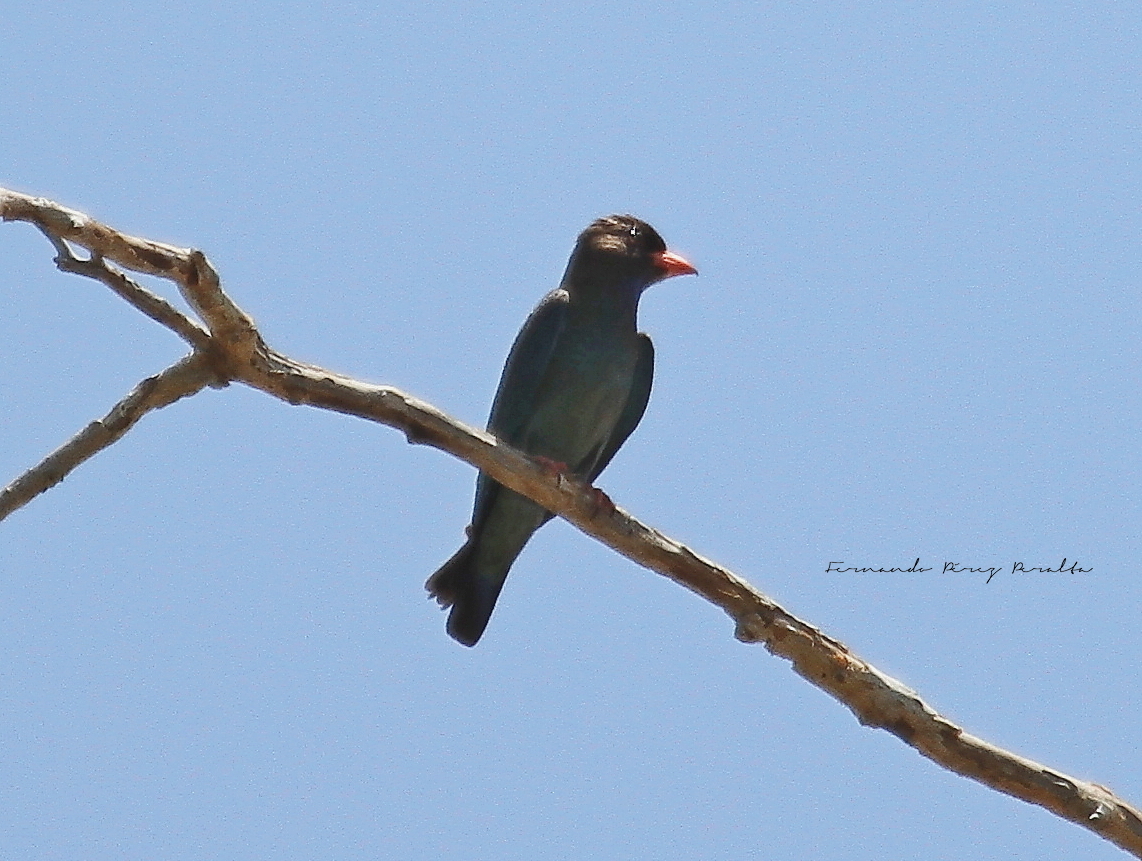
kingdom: Animalia
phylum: Chordata
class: Aves
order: Coraciiformes
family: Coraciidae
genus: Eurystomus
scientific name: Eurystomus orientalis
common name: Oriental dollarbird
